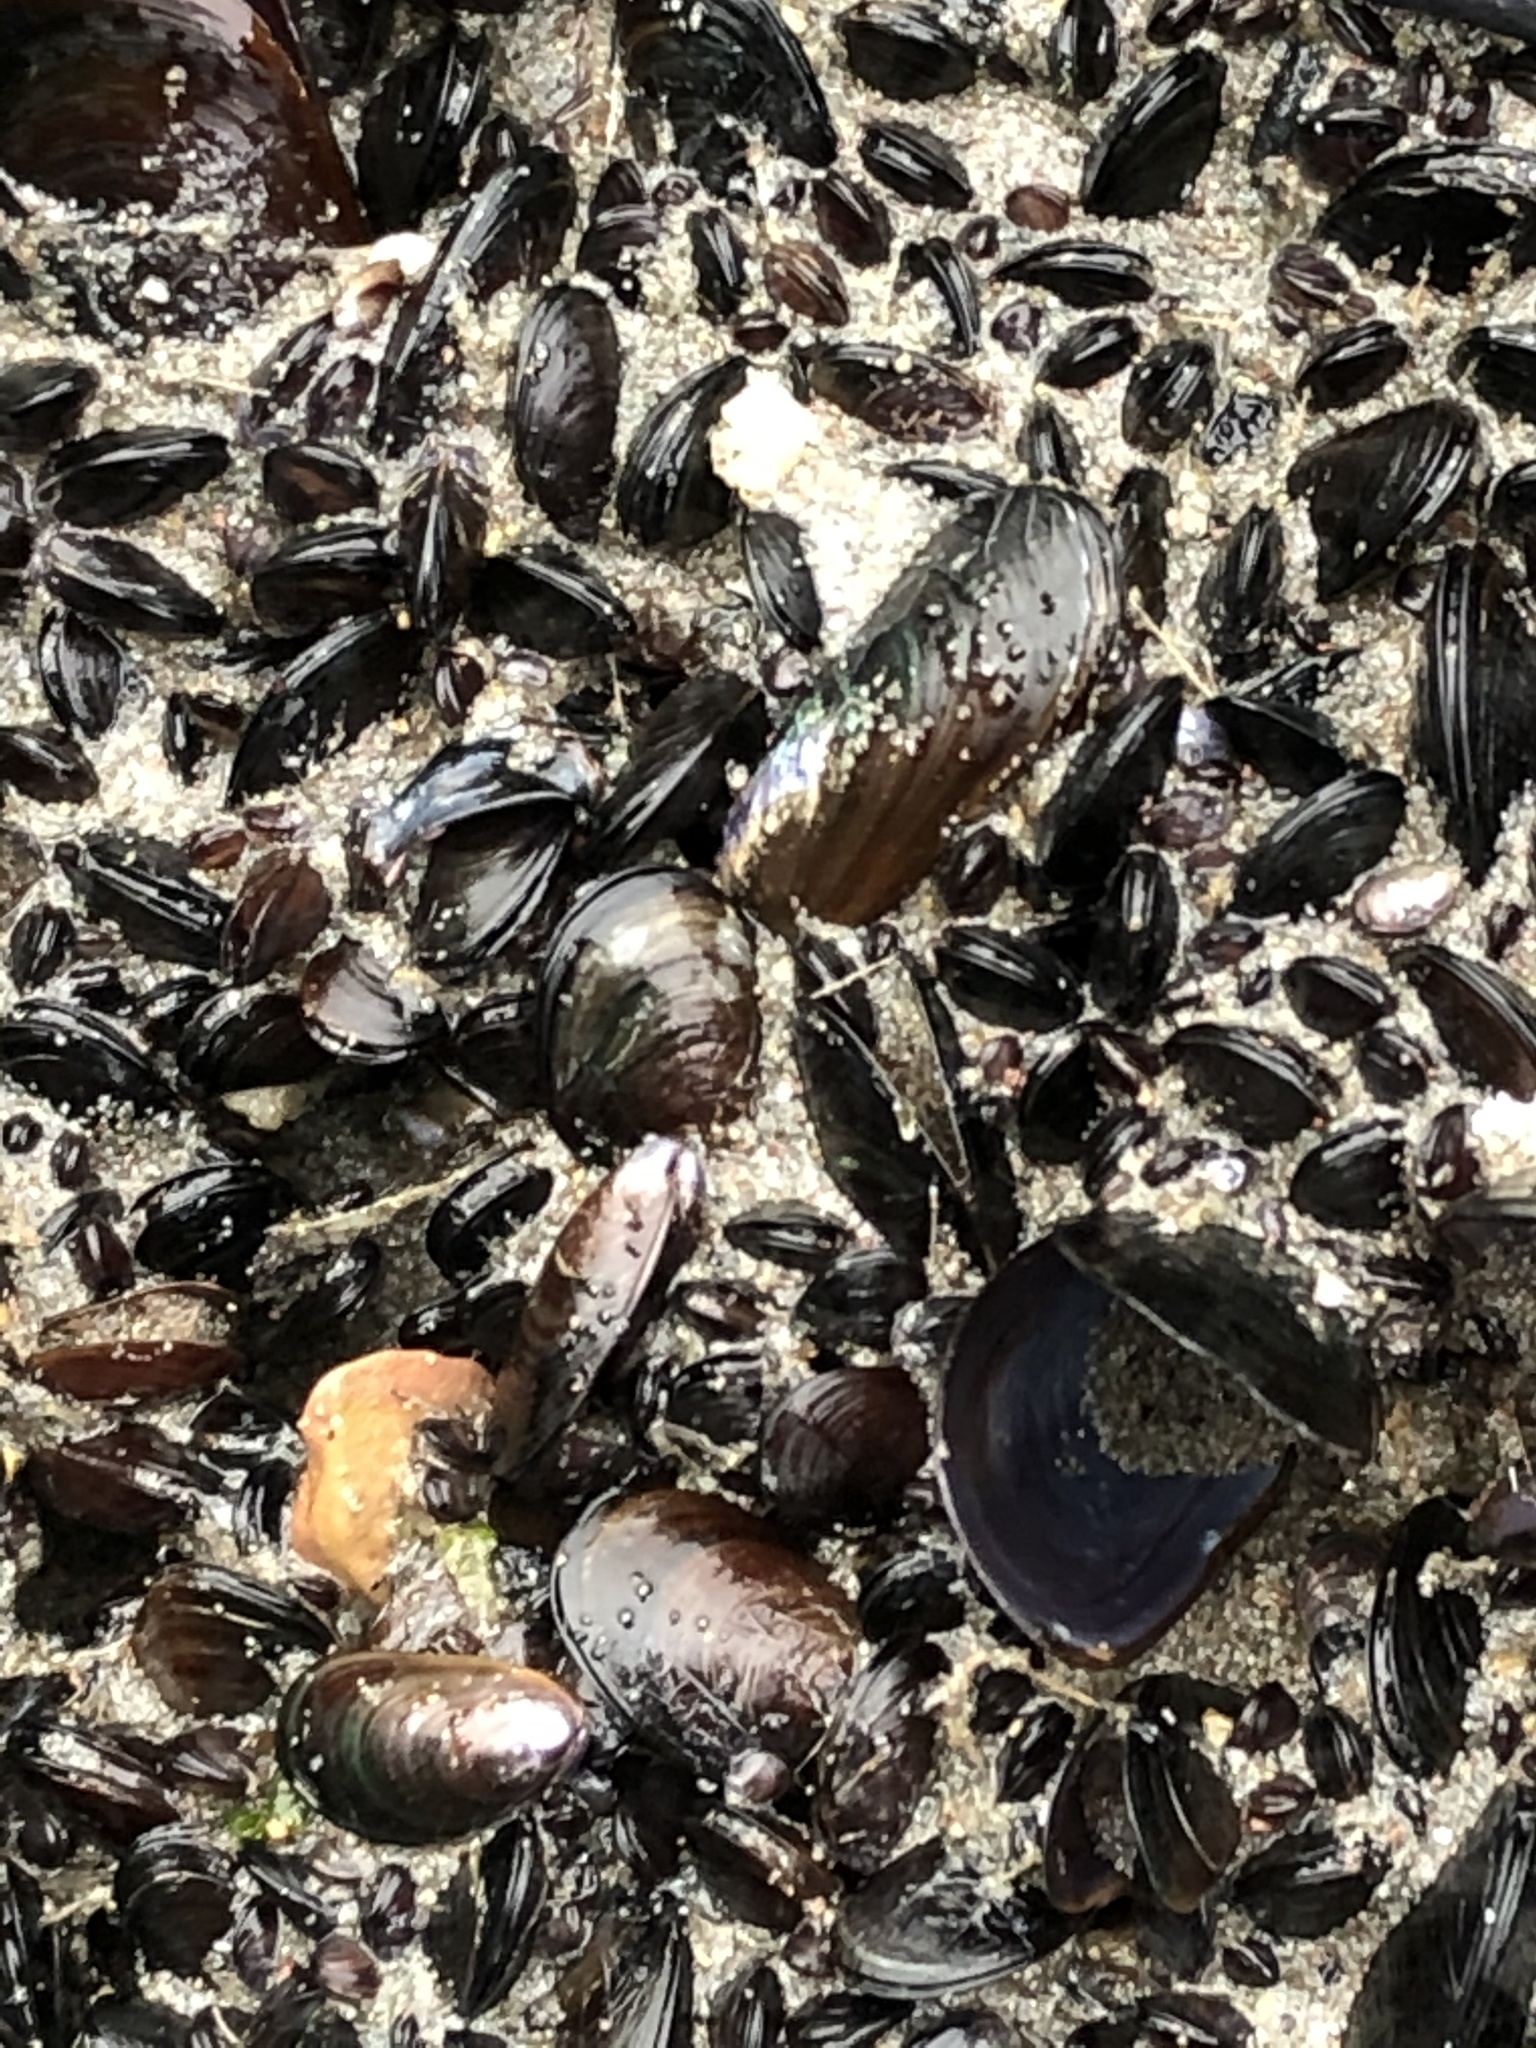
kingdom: Animalia
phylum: Mollusca
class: Bivalvia
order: Mytilida
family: Mytilidae
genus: Semimytilus
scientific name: Semimytilus patagonicus
